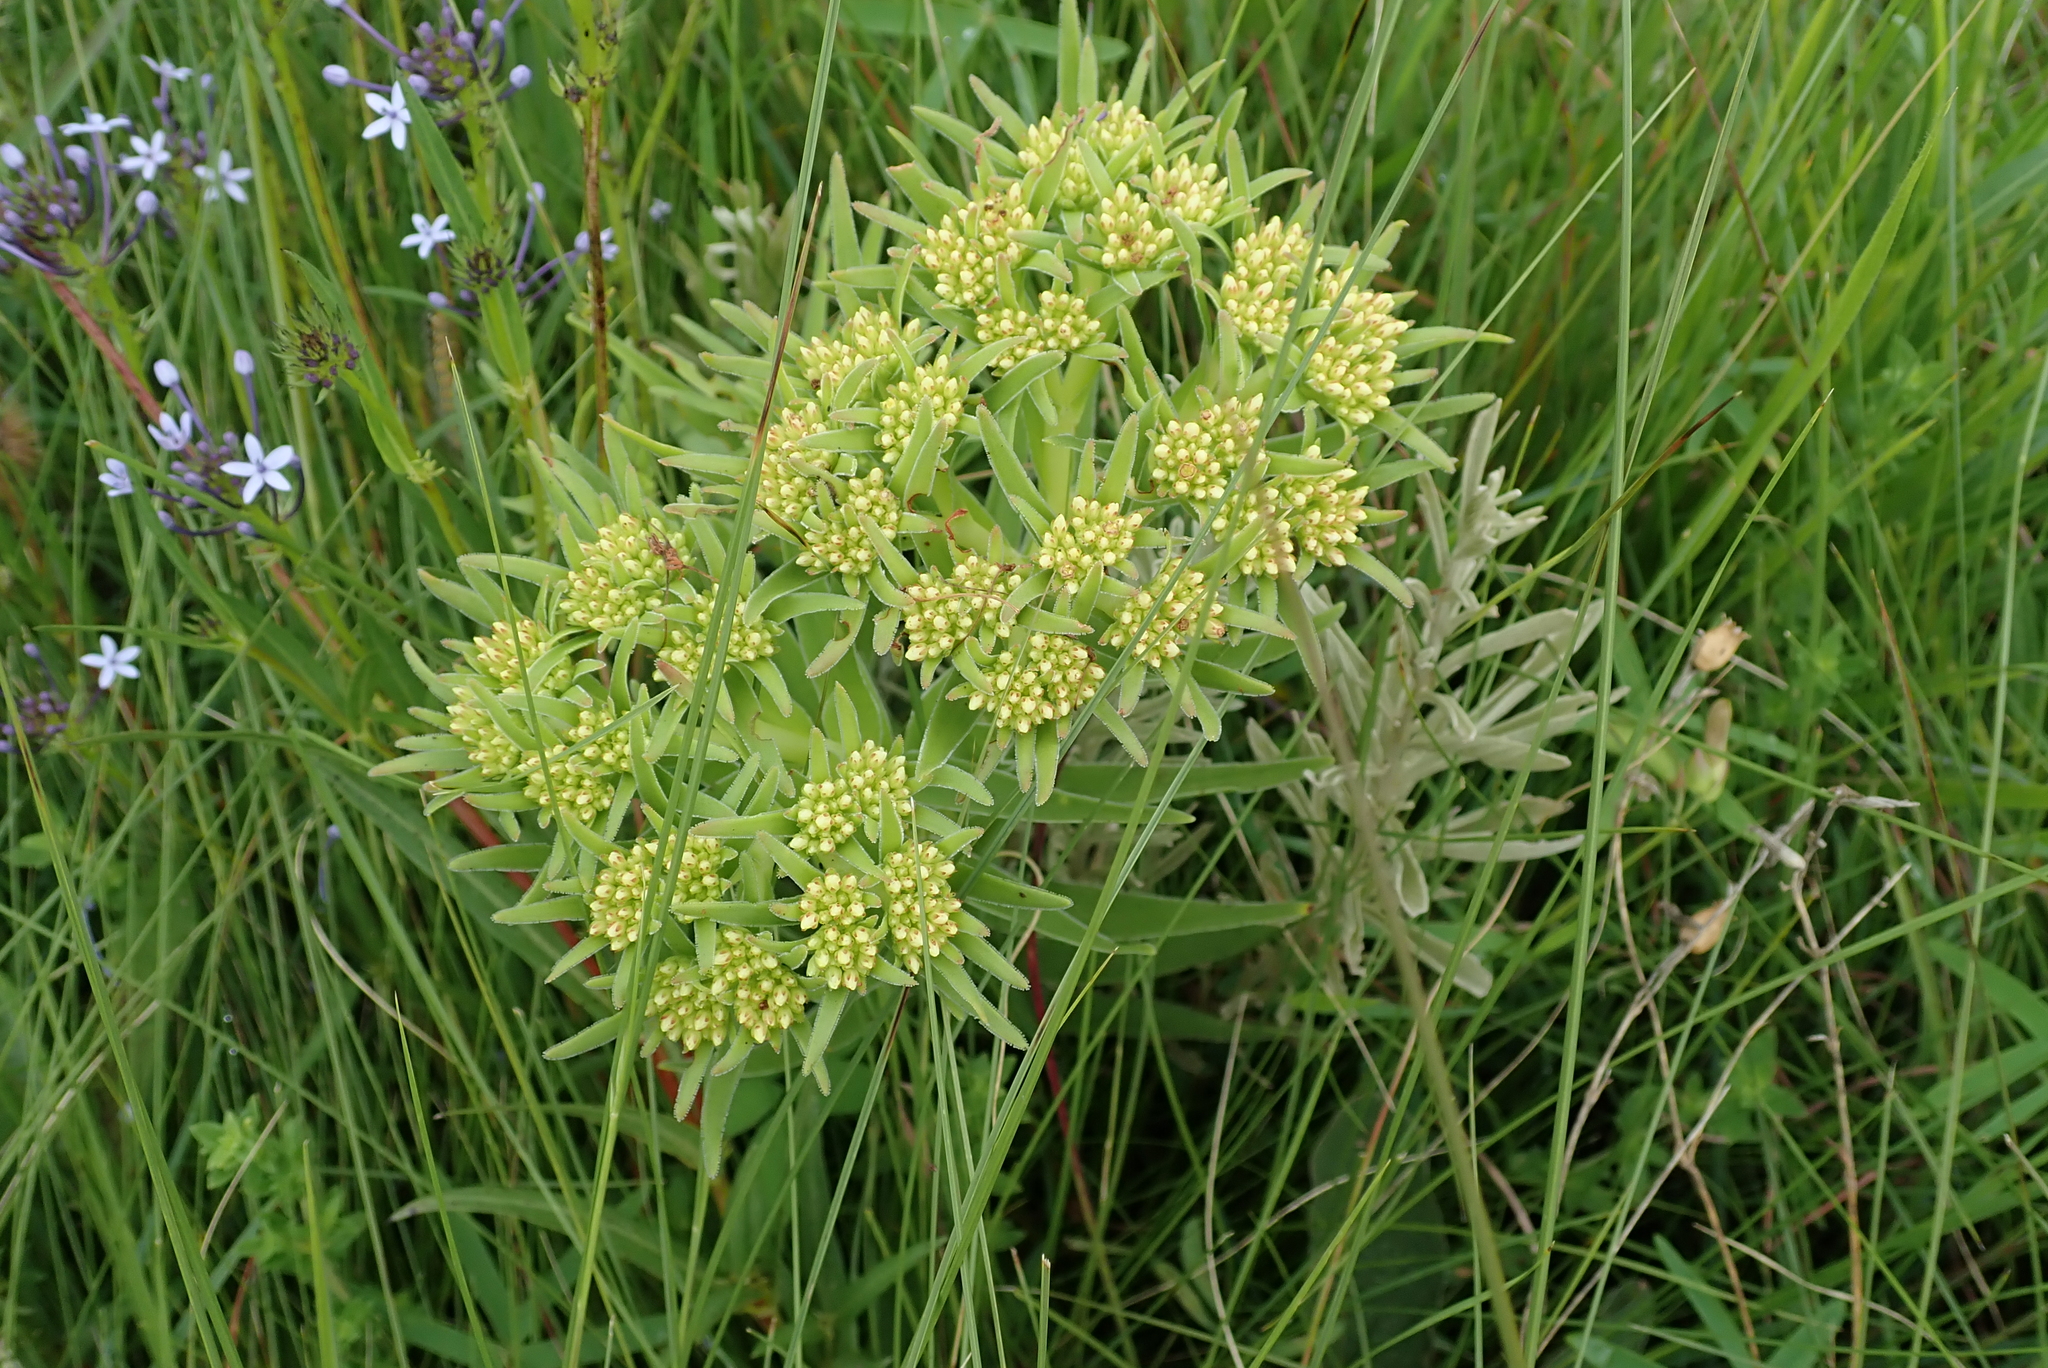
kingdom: Plantae
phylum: Tracheophyta
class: Magnoliopsida
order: Saxifragales
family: Crassulaceae
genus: Crassula
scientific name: Crassula vaginata
